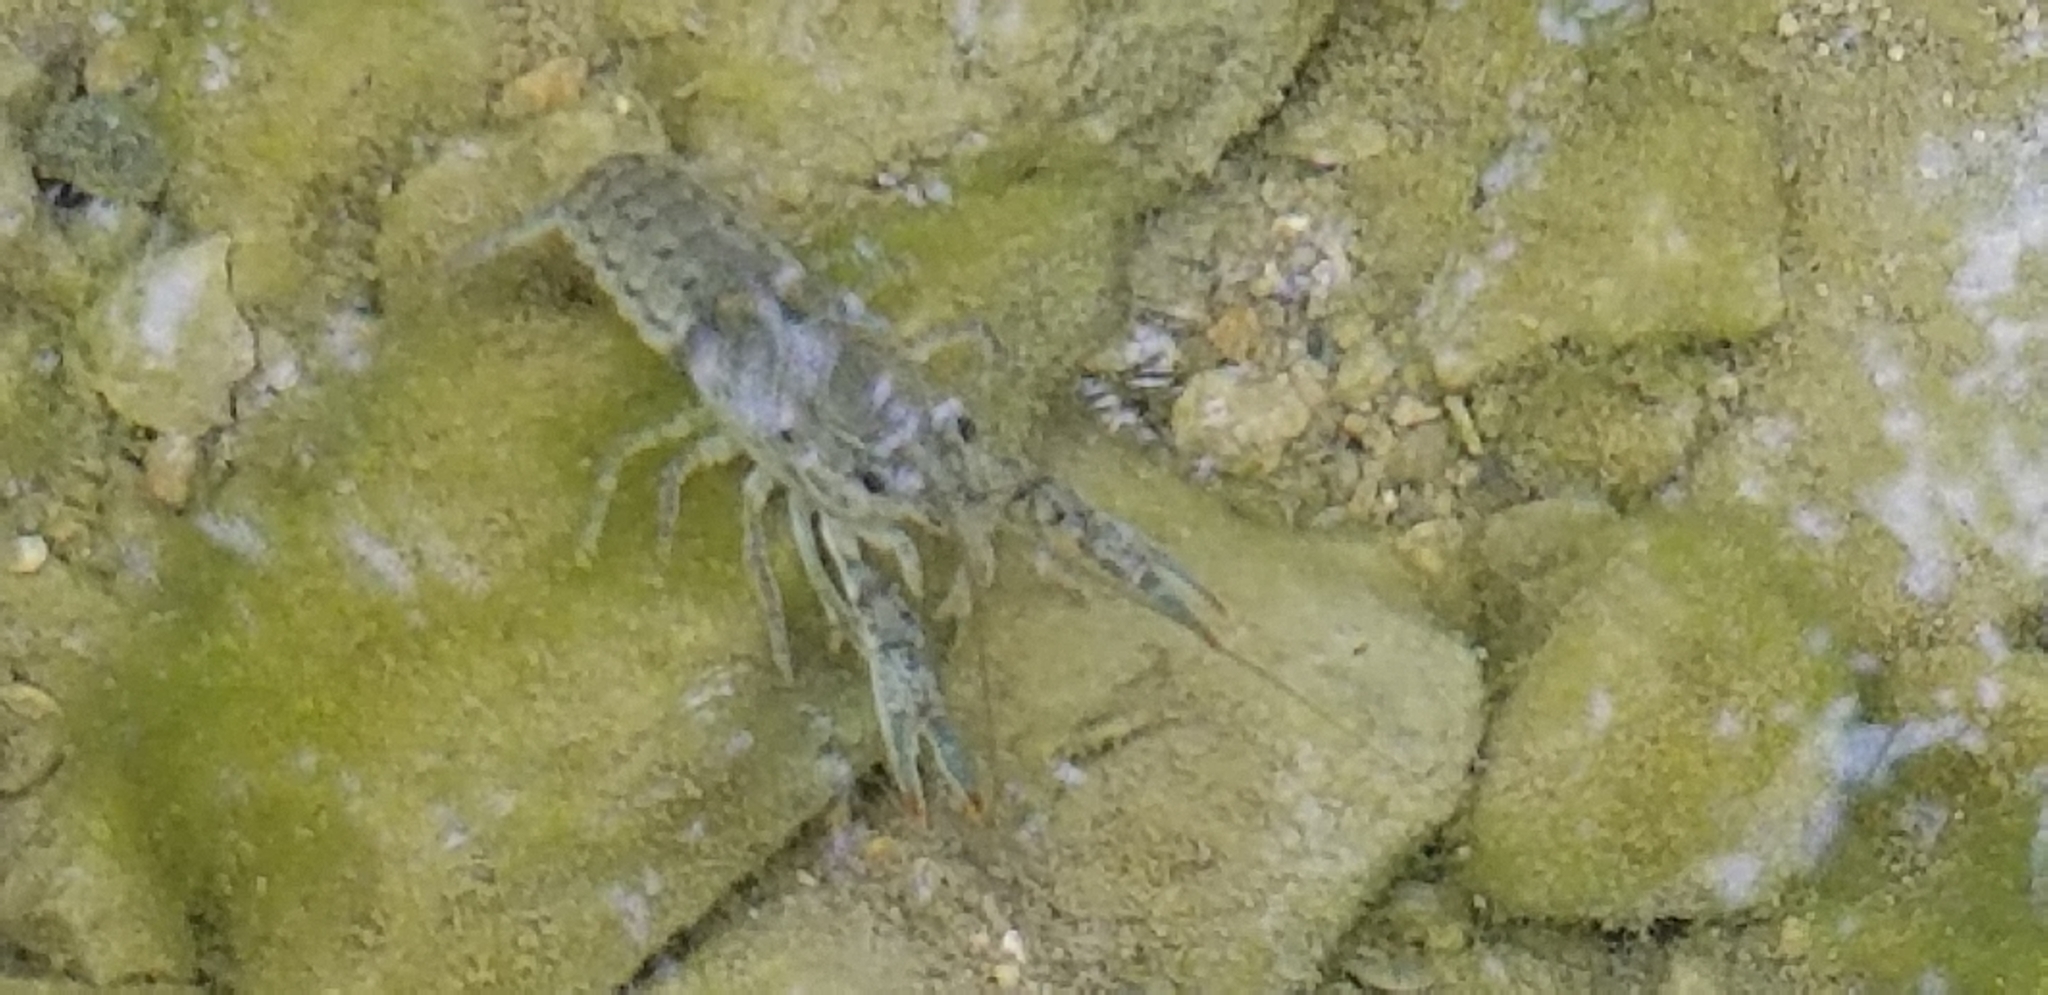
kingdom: Animalia
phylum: Arthropoda
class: Malacostraca
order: Decapoda
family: Cambaridae
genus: Procambarus
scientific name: Procambarus simulans
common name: Southern plains crayfish
